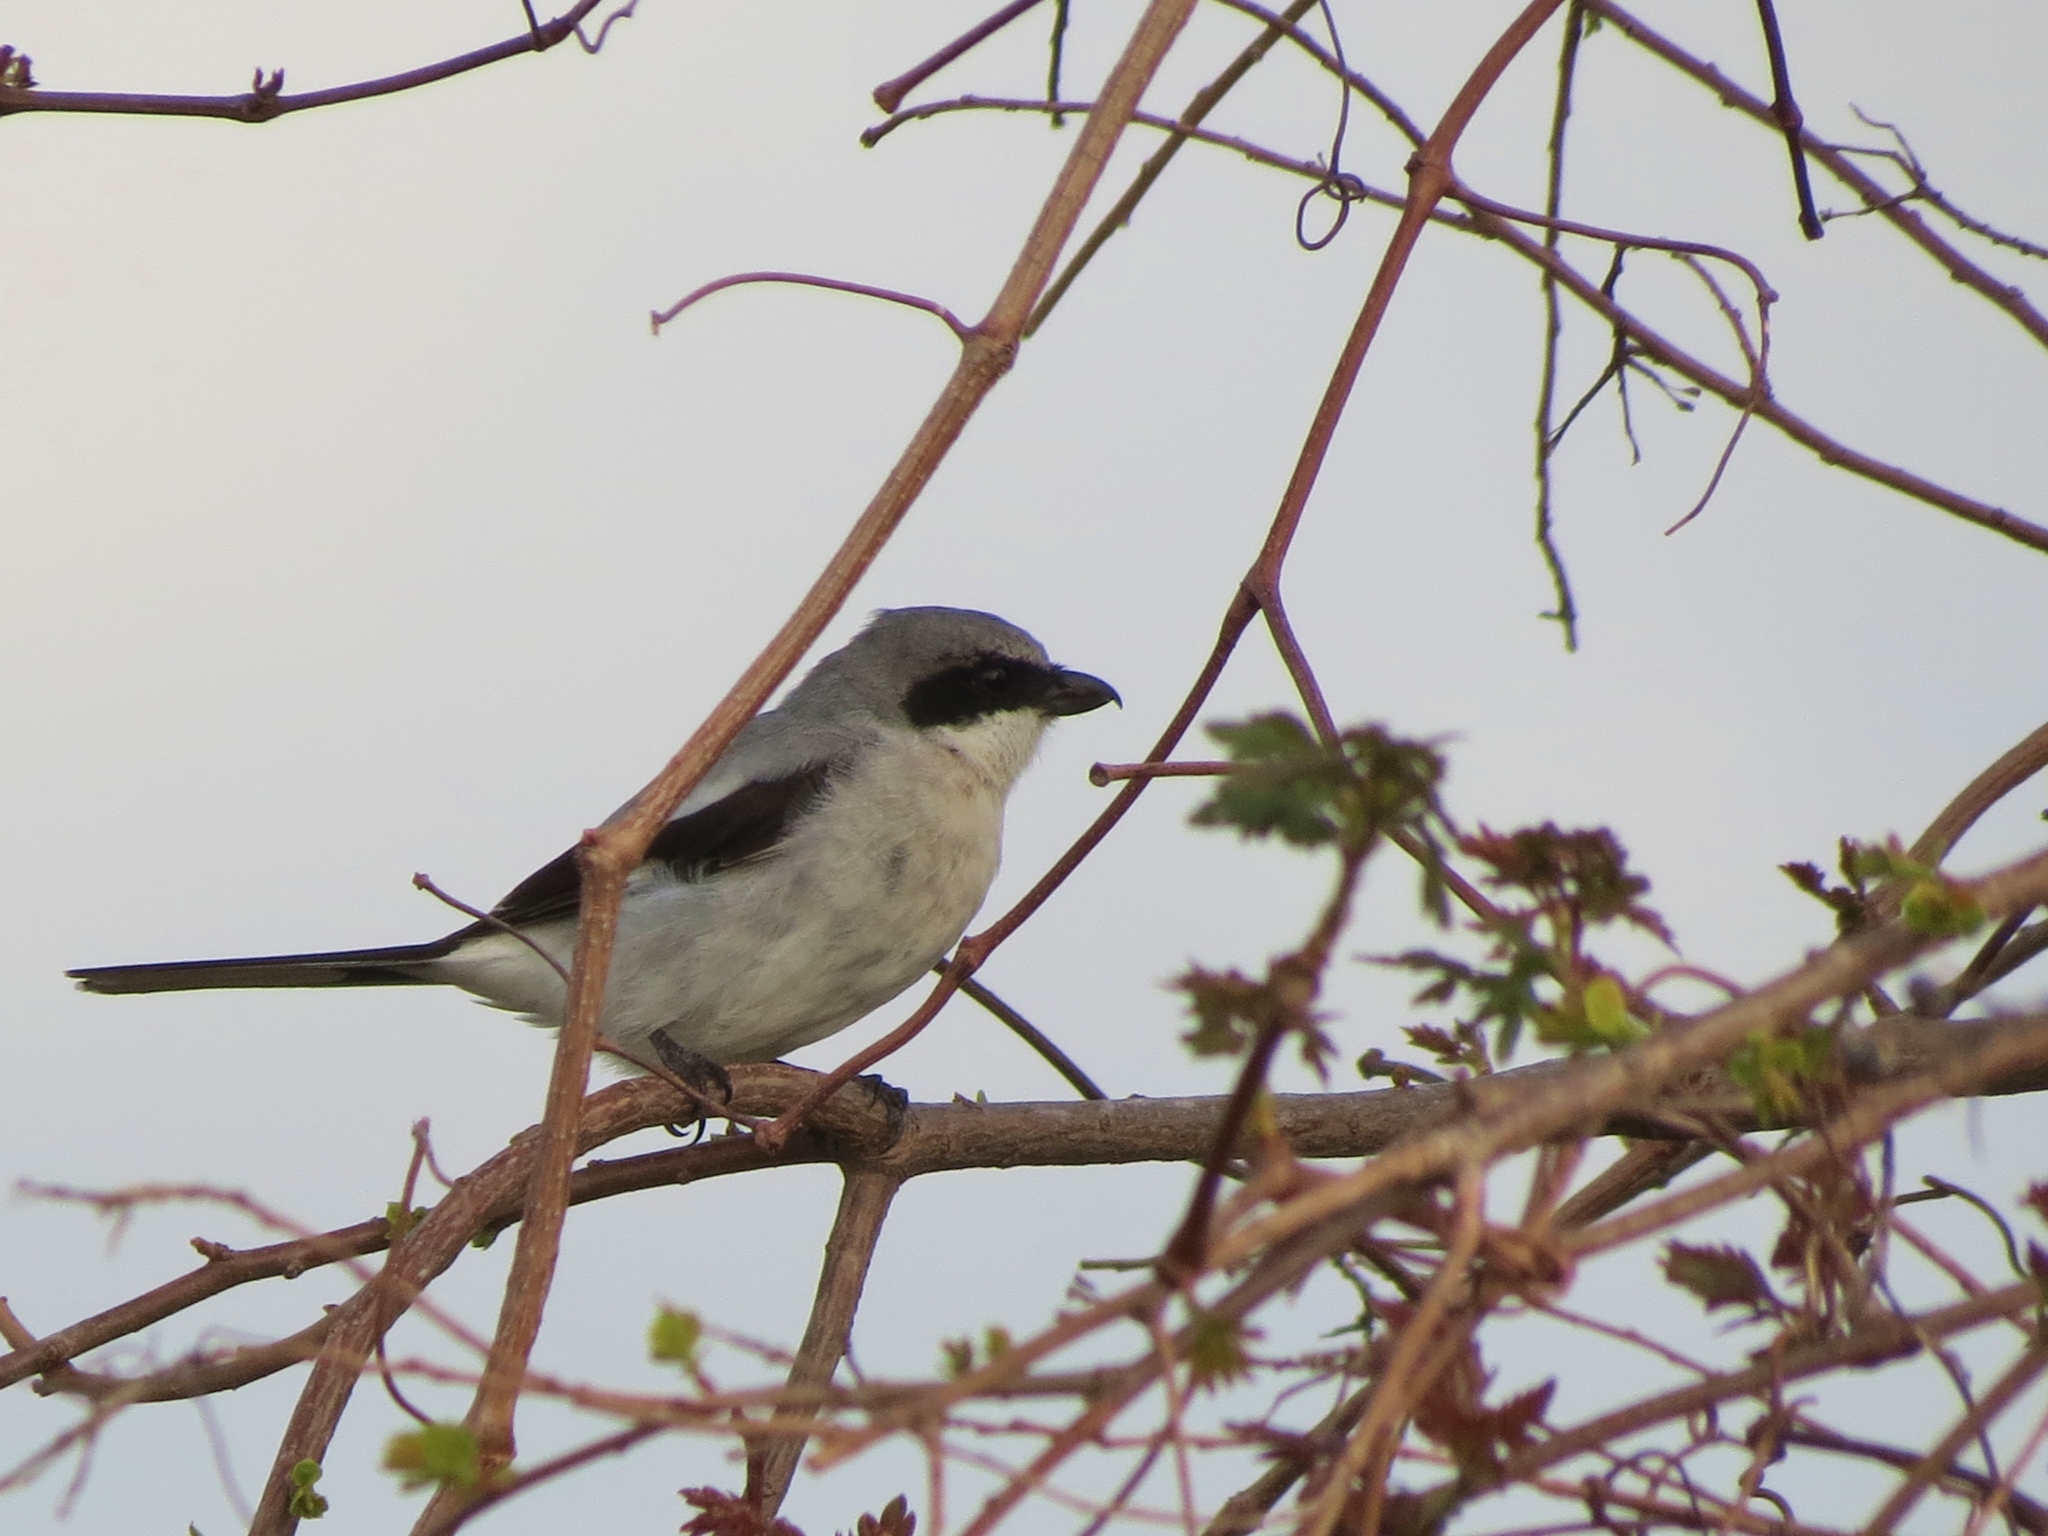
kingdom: Animalia
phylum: Chordata
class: Aves
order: Passeriformes
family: Laniidae
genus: Lanius
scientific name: Lanius ludovicianus
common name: Loggerhead shrike
